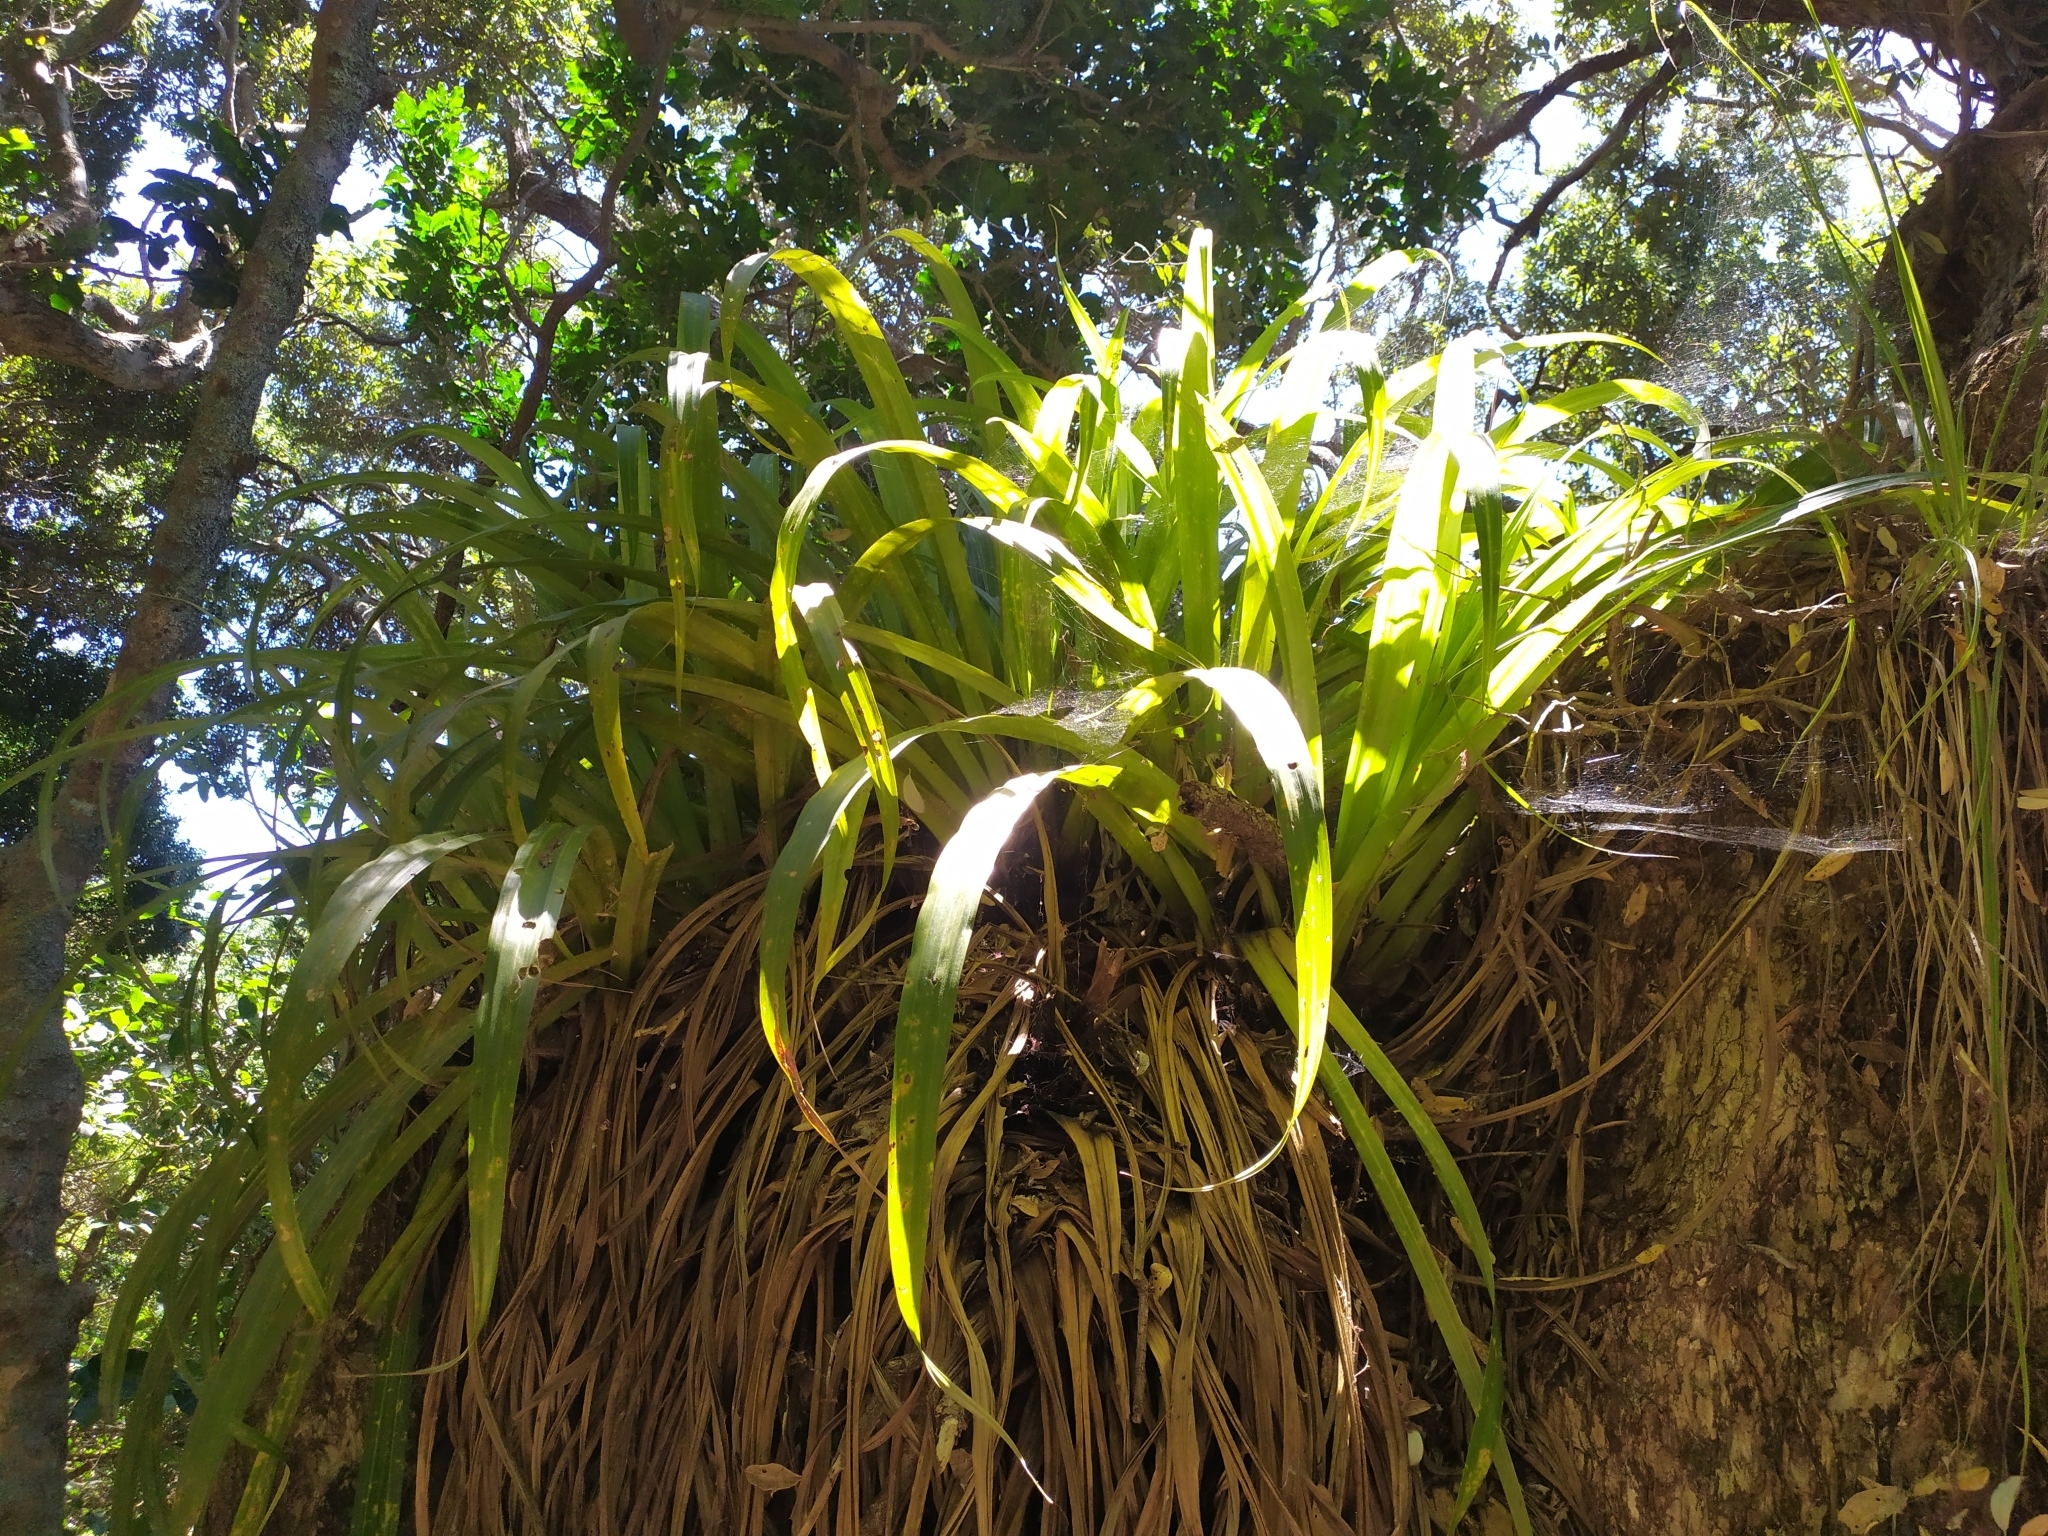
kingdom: Plantae
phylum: Tracheophyta
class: Liliopsida
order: Asparagales
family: Asteliaceae
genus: Astelia
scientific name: Astelia hastata
